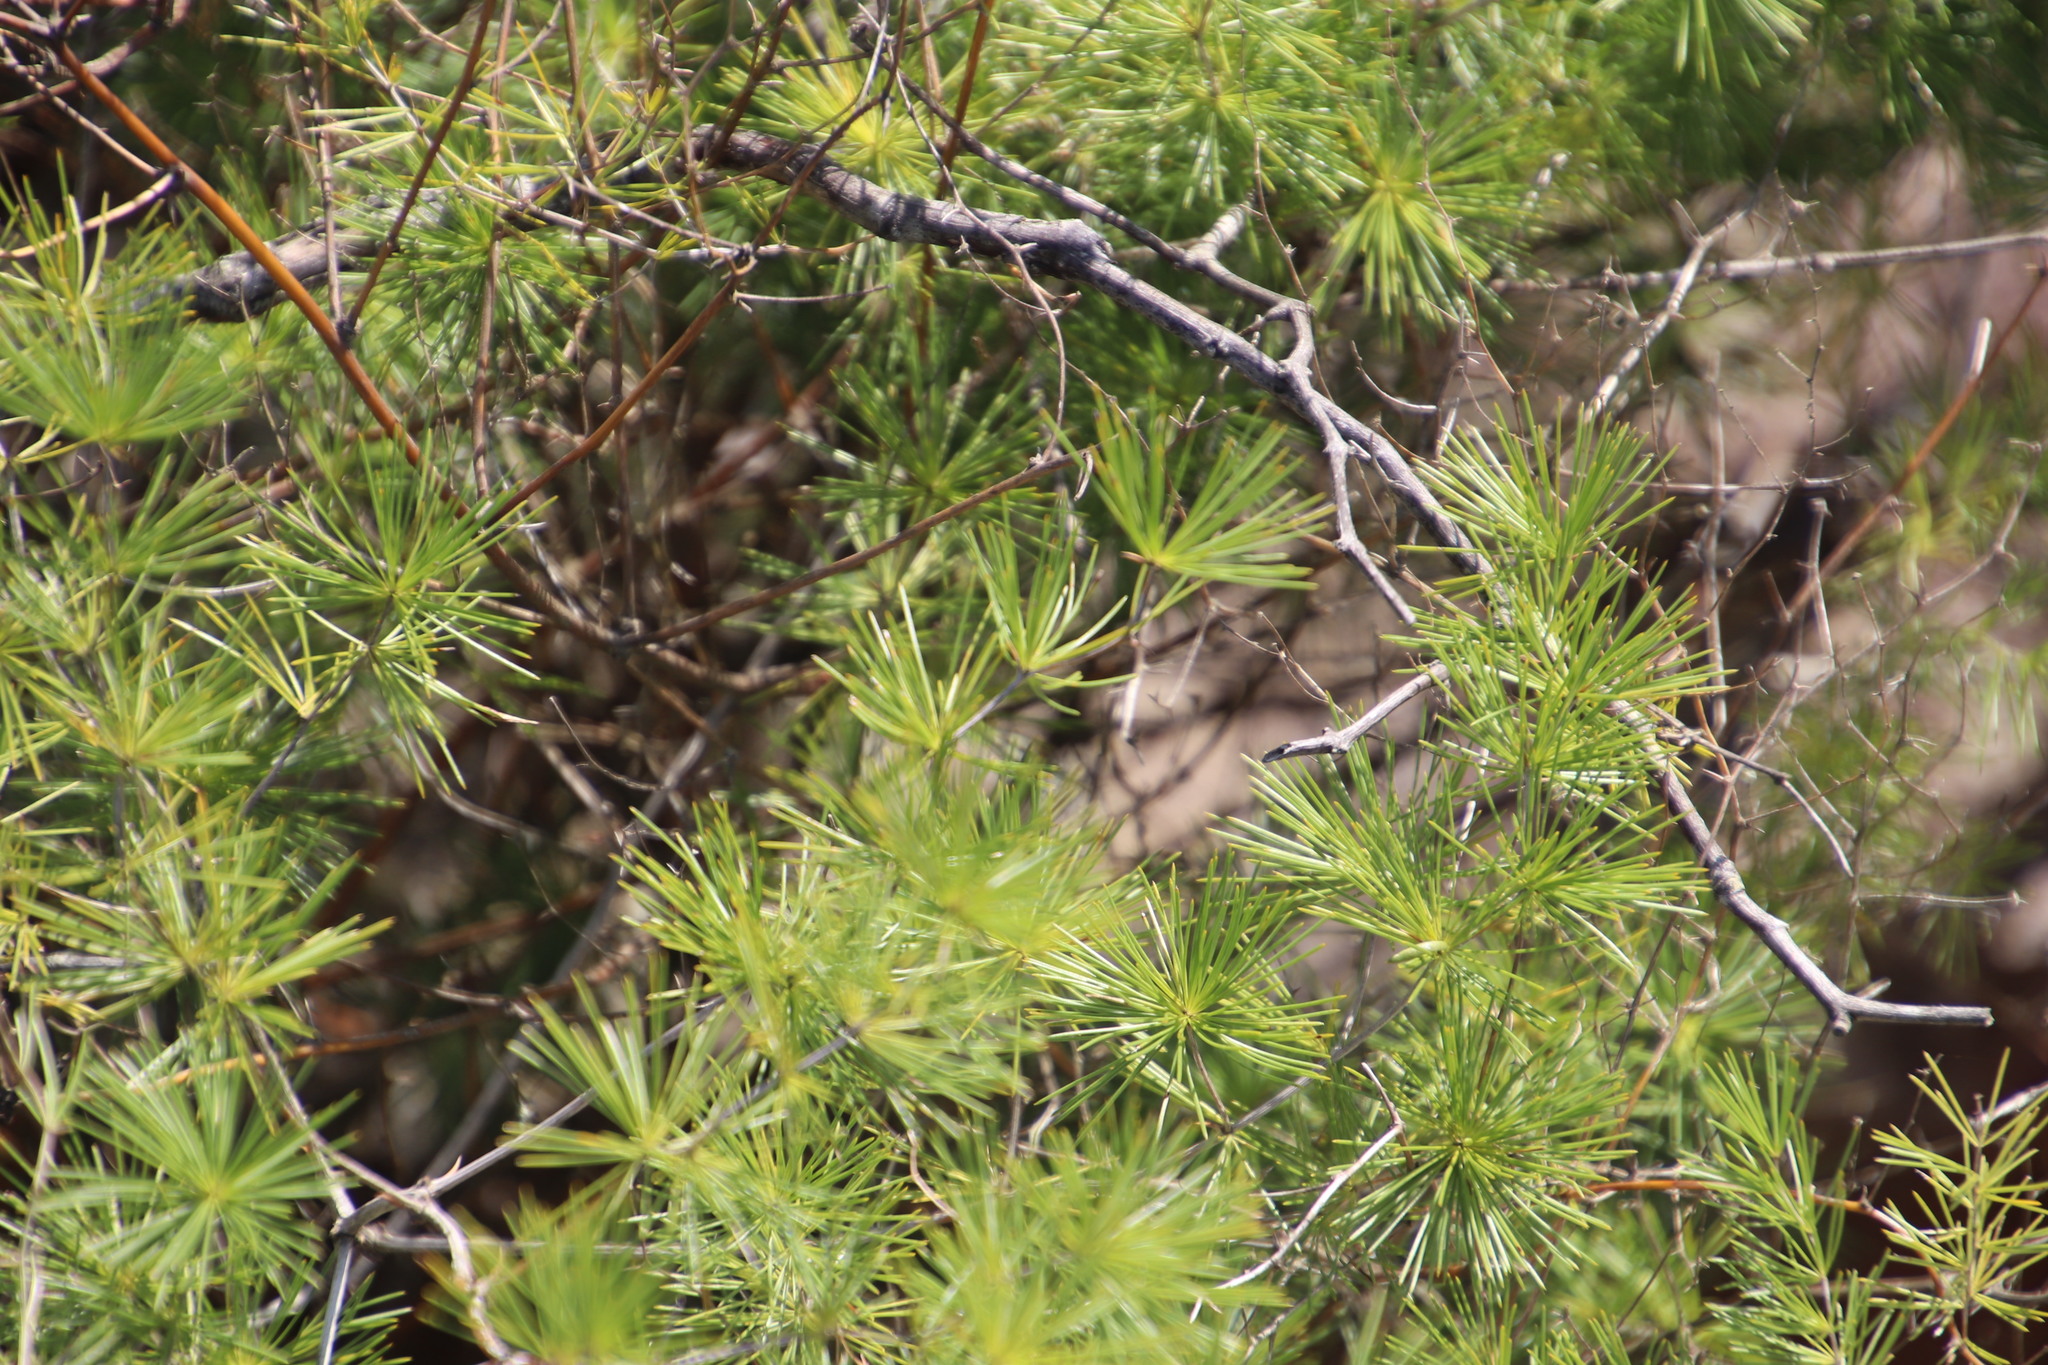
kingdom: Plantae
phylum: Tracheophyta
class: Liliopsida
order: Asparagales
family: Asparagaceae
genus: Asparagus
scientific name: Asparagus laricinus
